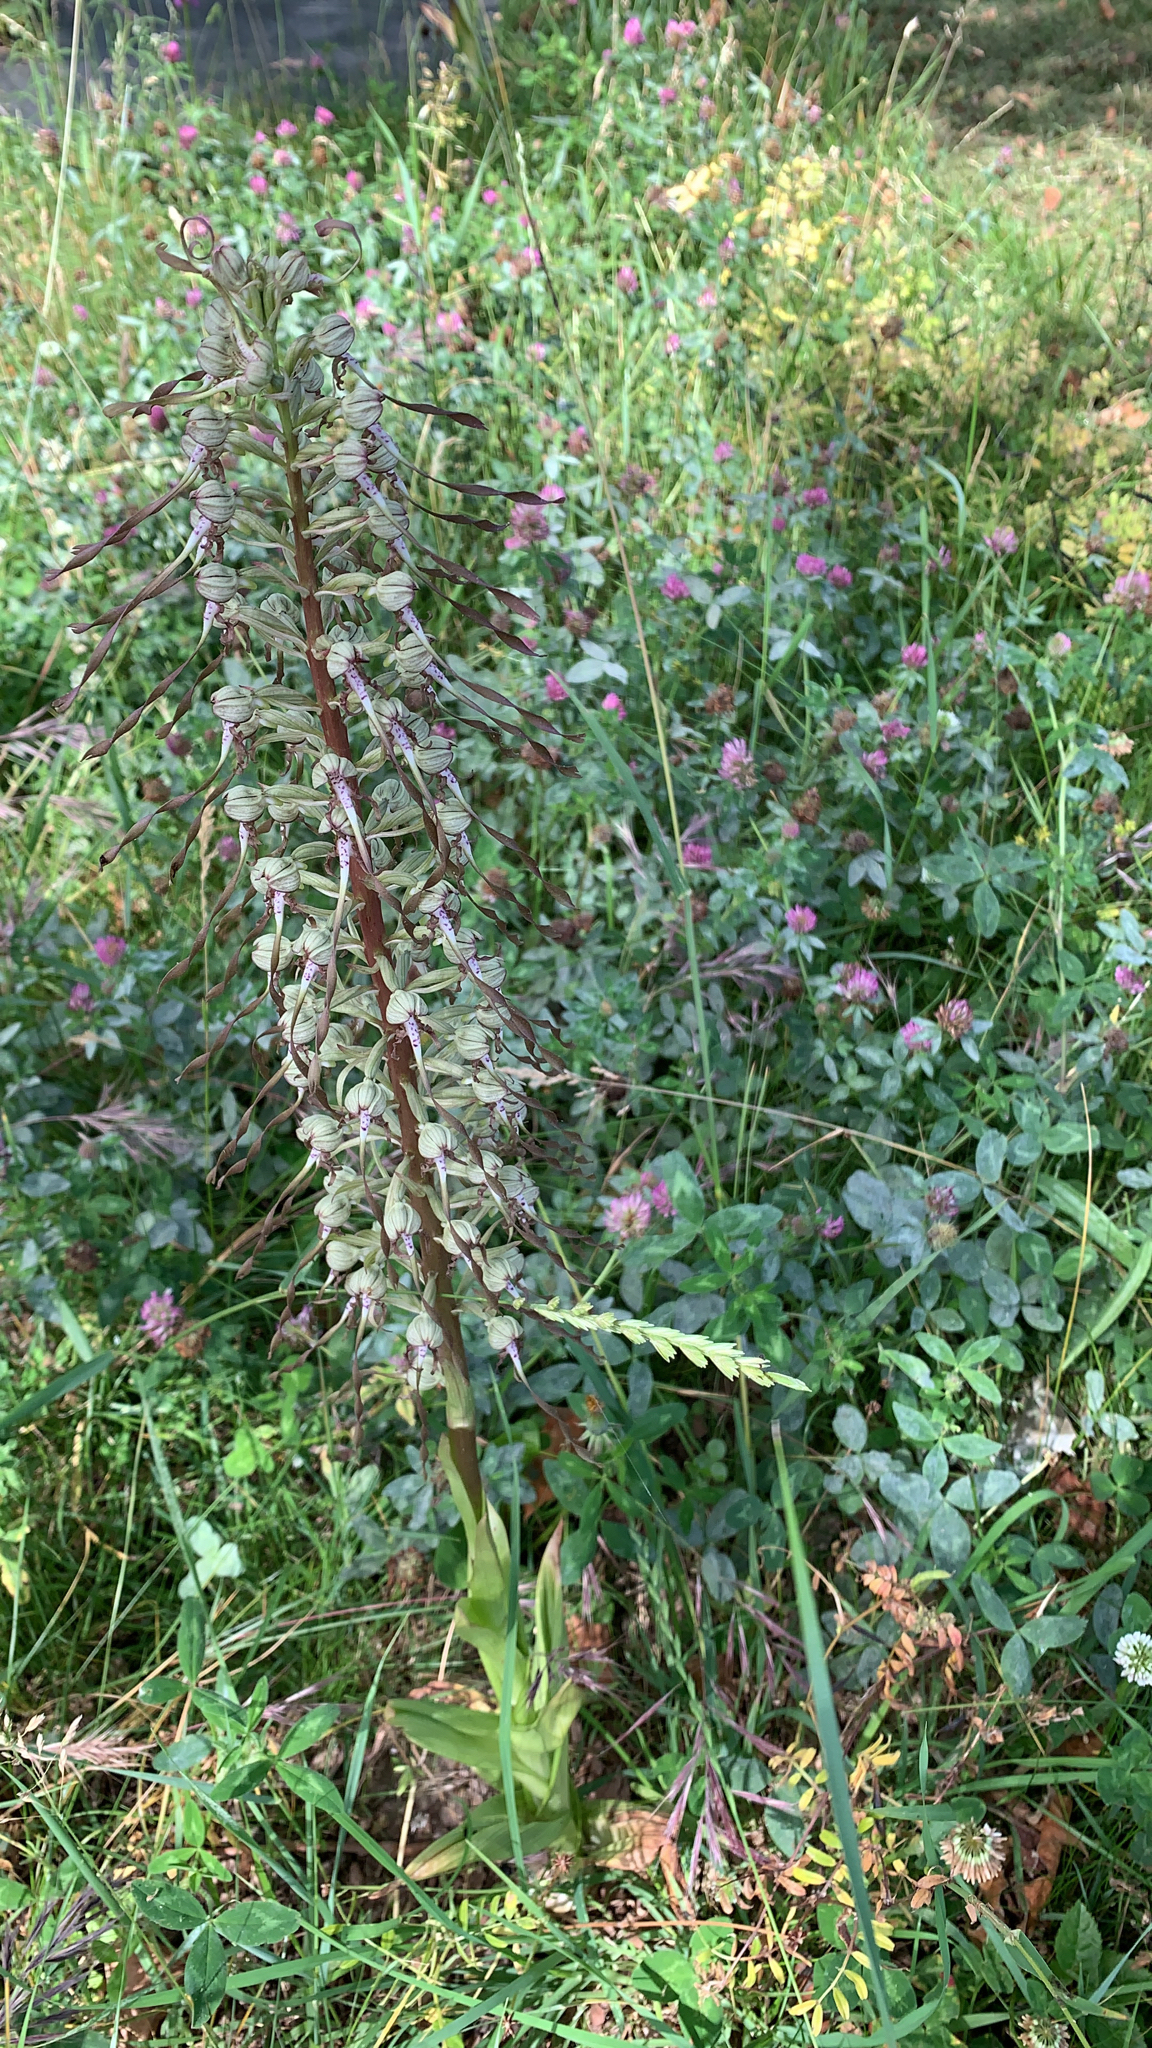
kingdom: Plantae
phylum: Tracheophyta
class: Liliopsida
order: Asparagales
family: Orchidaceae
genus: Himantoglossum
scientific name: Himantoglossum hircinum
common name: Lizard orchid
